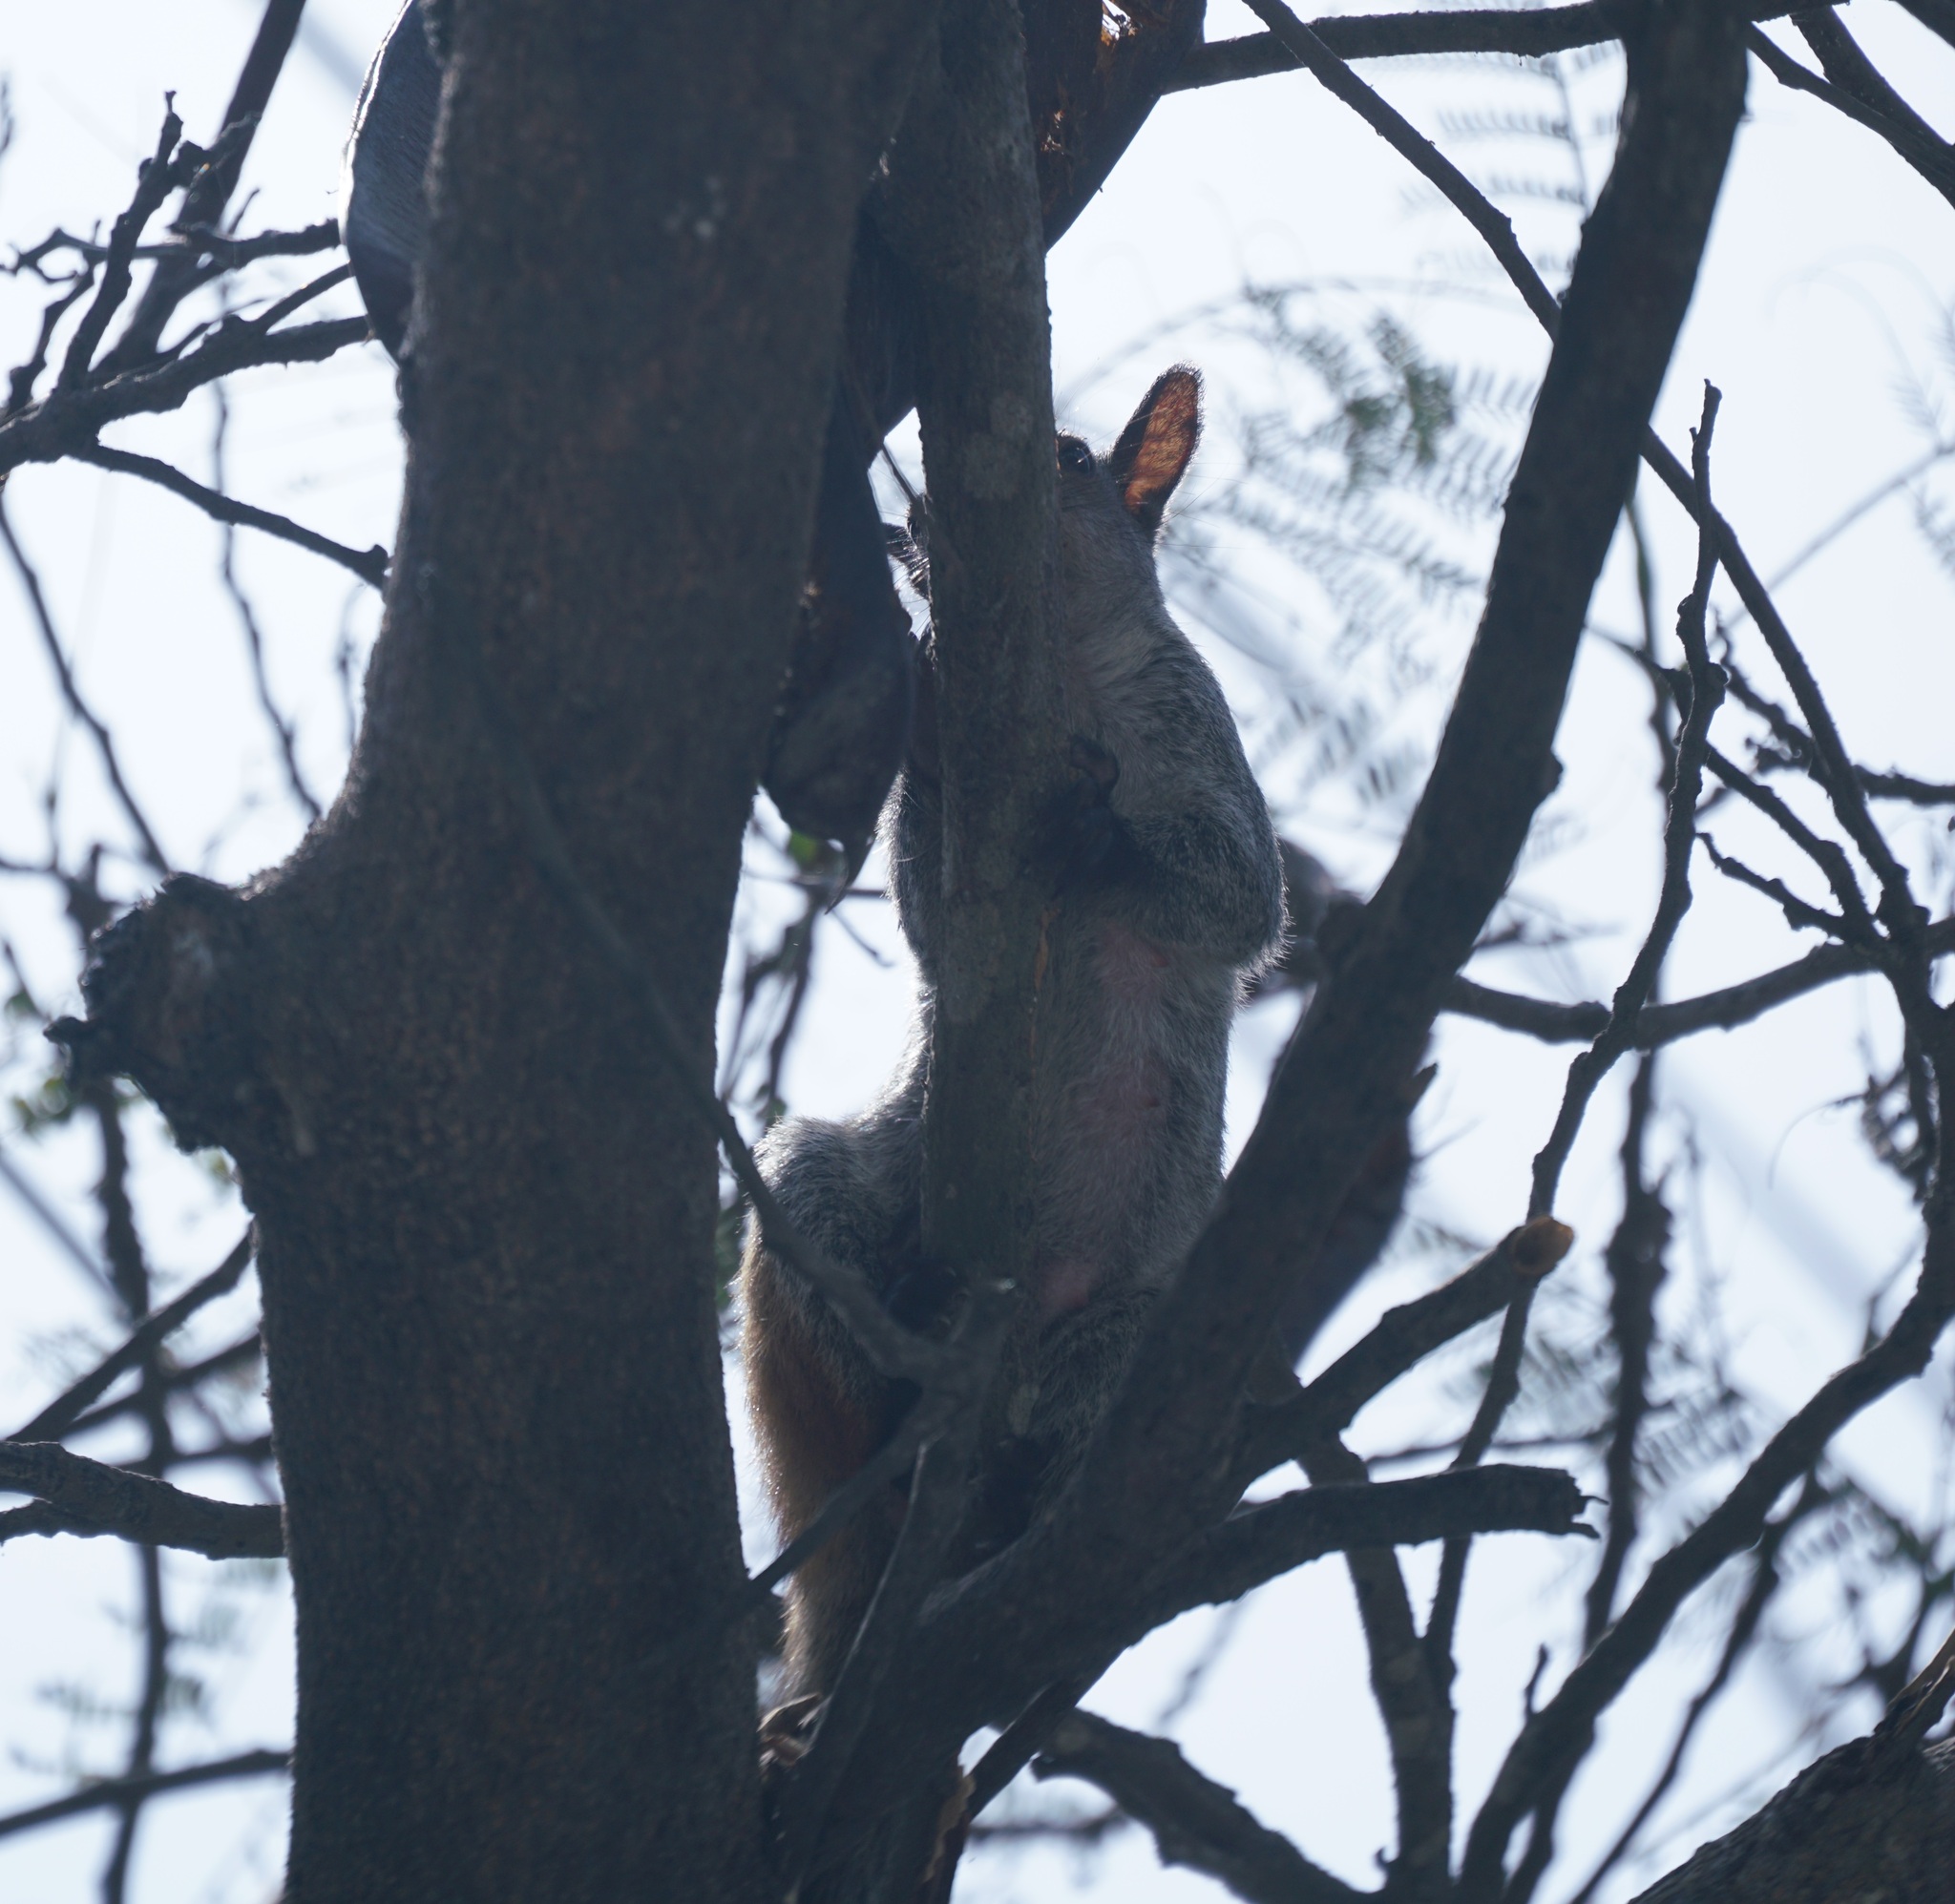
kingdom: Animalia
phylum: Chordata
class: Mammalia
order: Rodentia
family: Sciuridae
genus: Sciurus
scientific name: Sciurus stramineus
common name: Guayaquil squirrel
